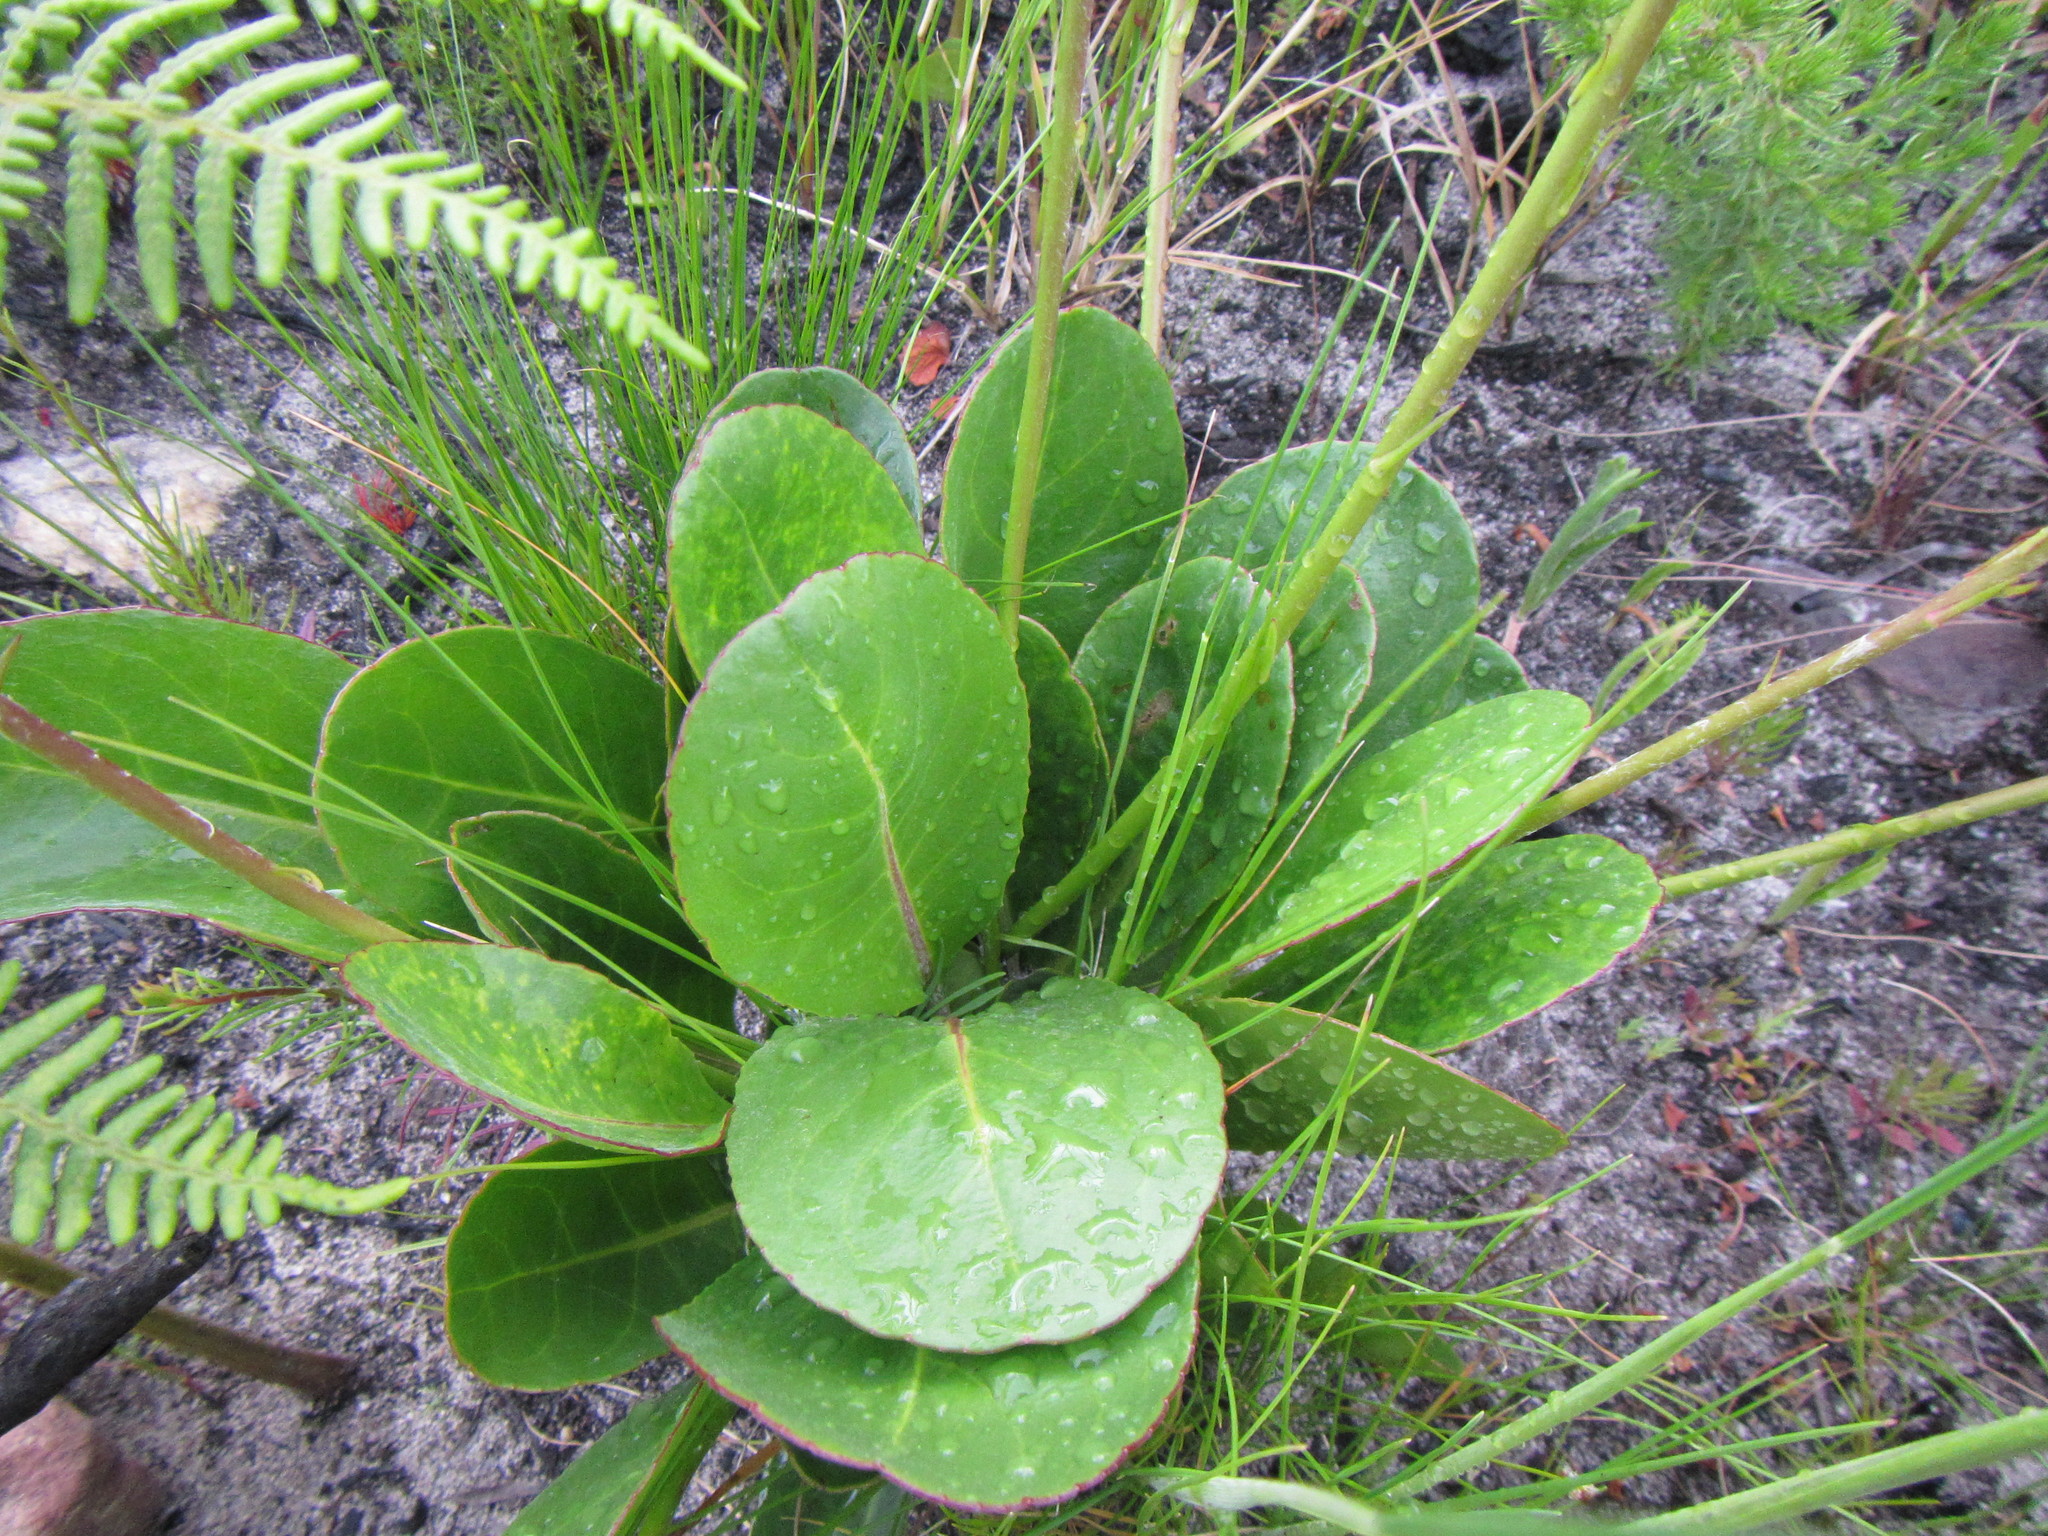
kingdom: Plantae
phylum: Tracheophyta
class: Magnoliopsida
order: Asterales
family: Asteraceae
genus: Gerbera
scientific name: Gerbera crocea
